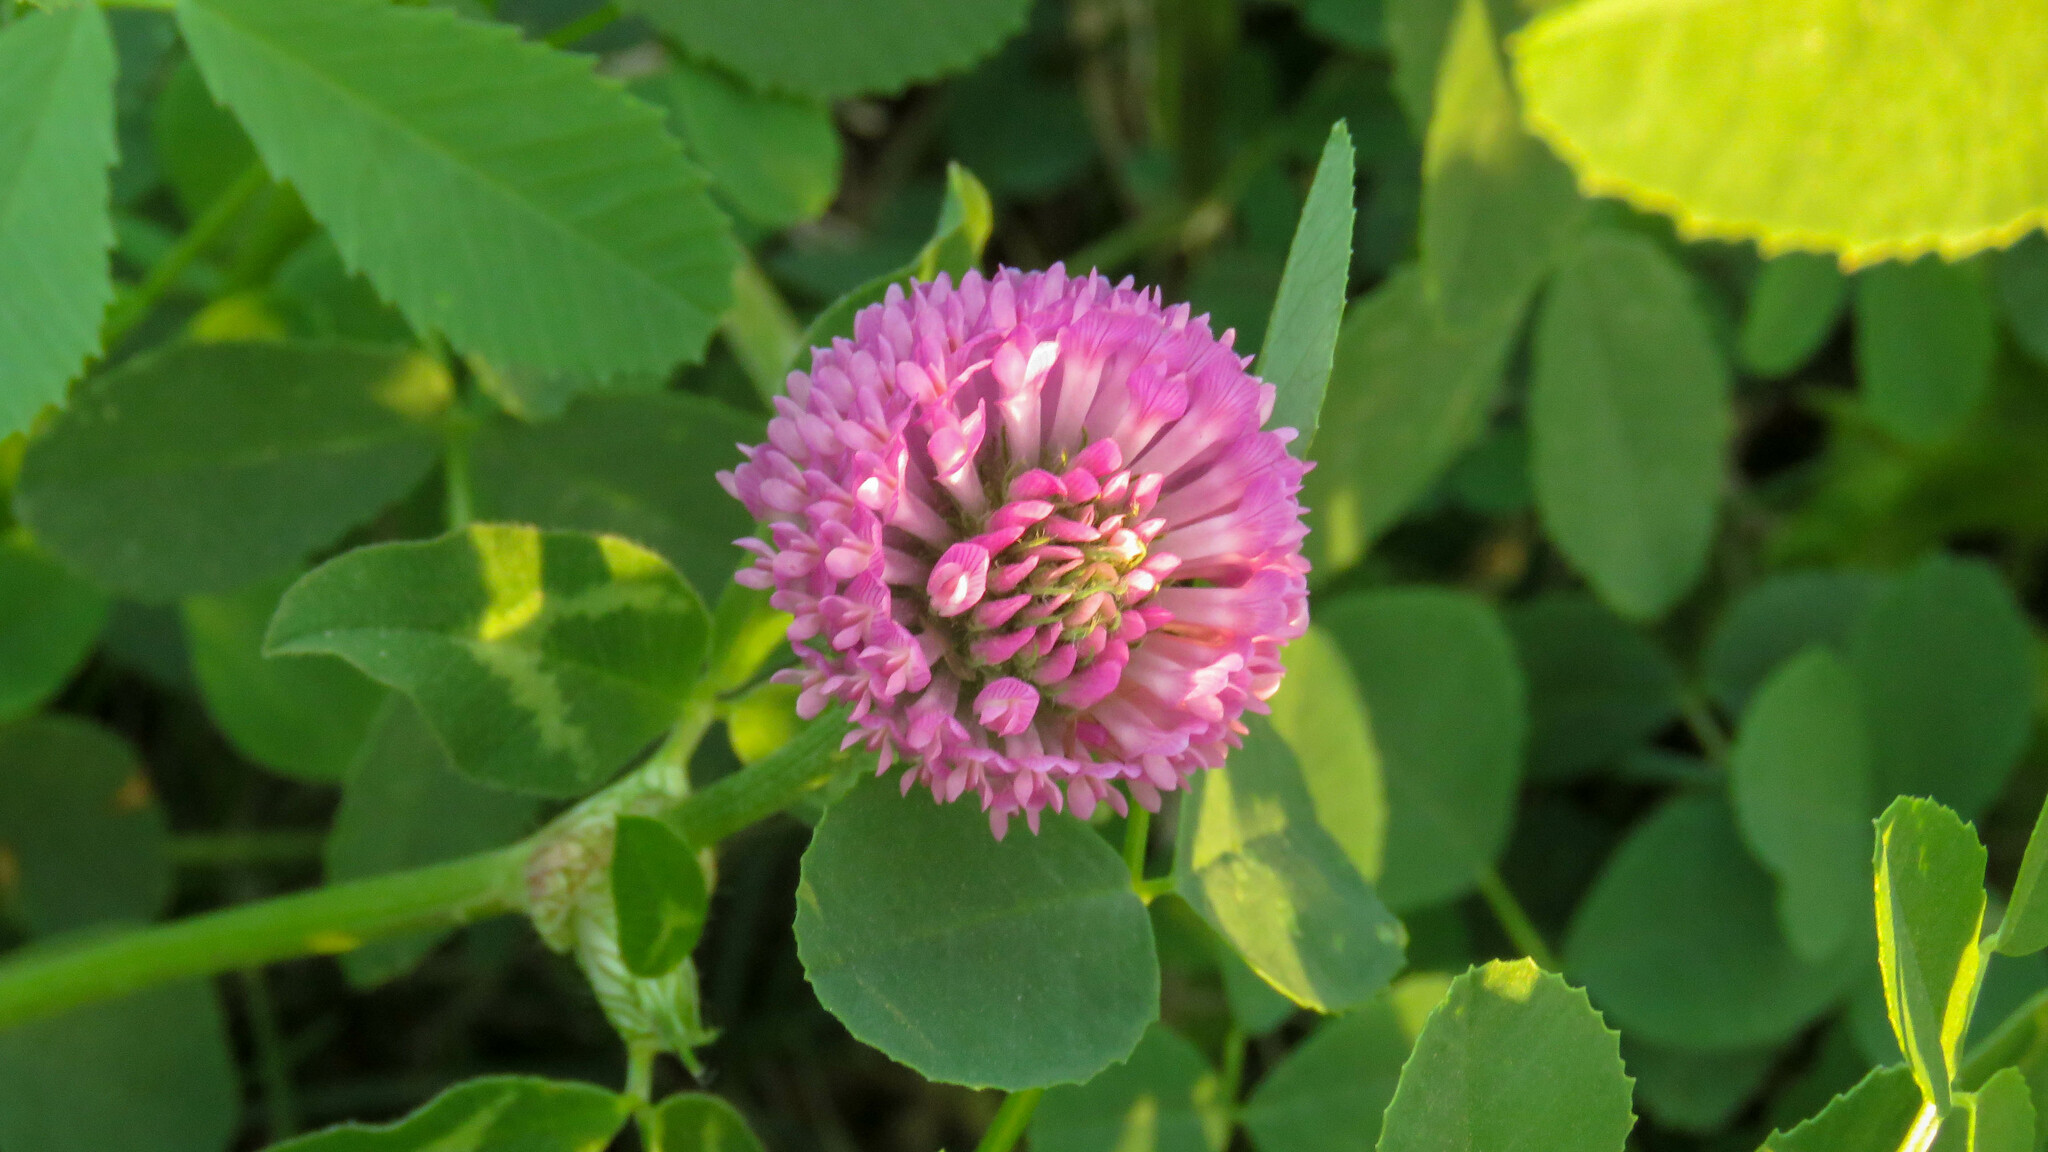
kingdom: Plantae
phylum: Tracheophyta
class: Magnoliopsida
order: Fabales
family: Fabaceae
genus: Trifolium
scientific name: Trifolium pratense
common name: Red clover
